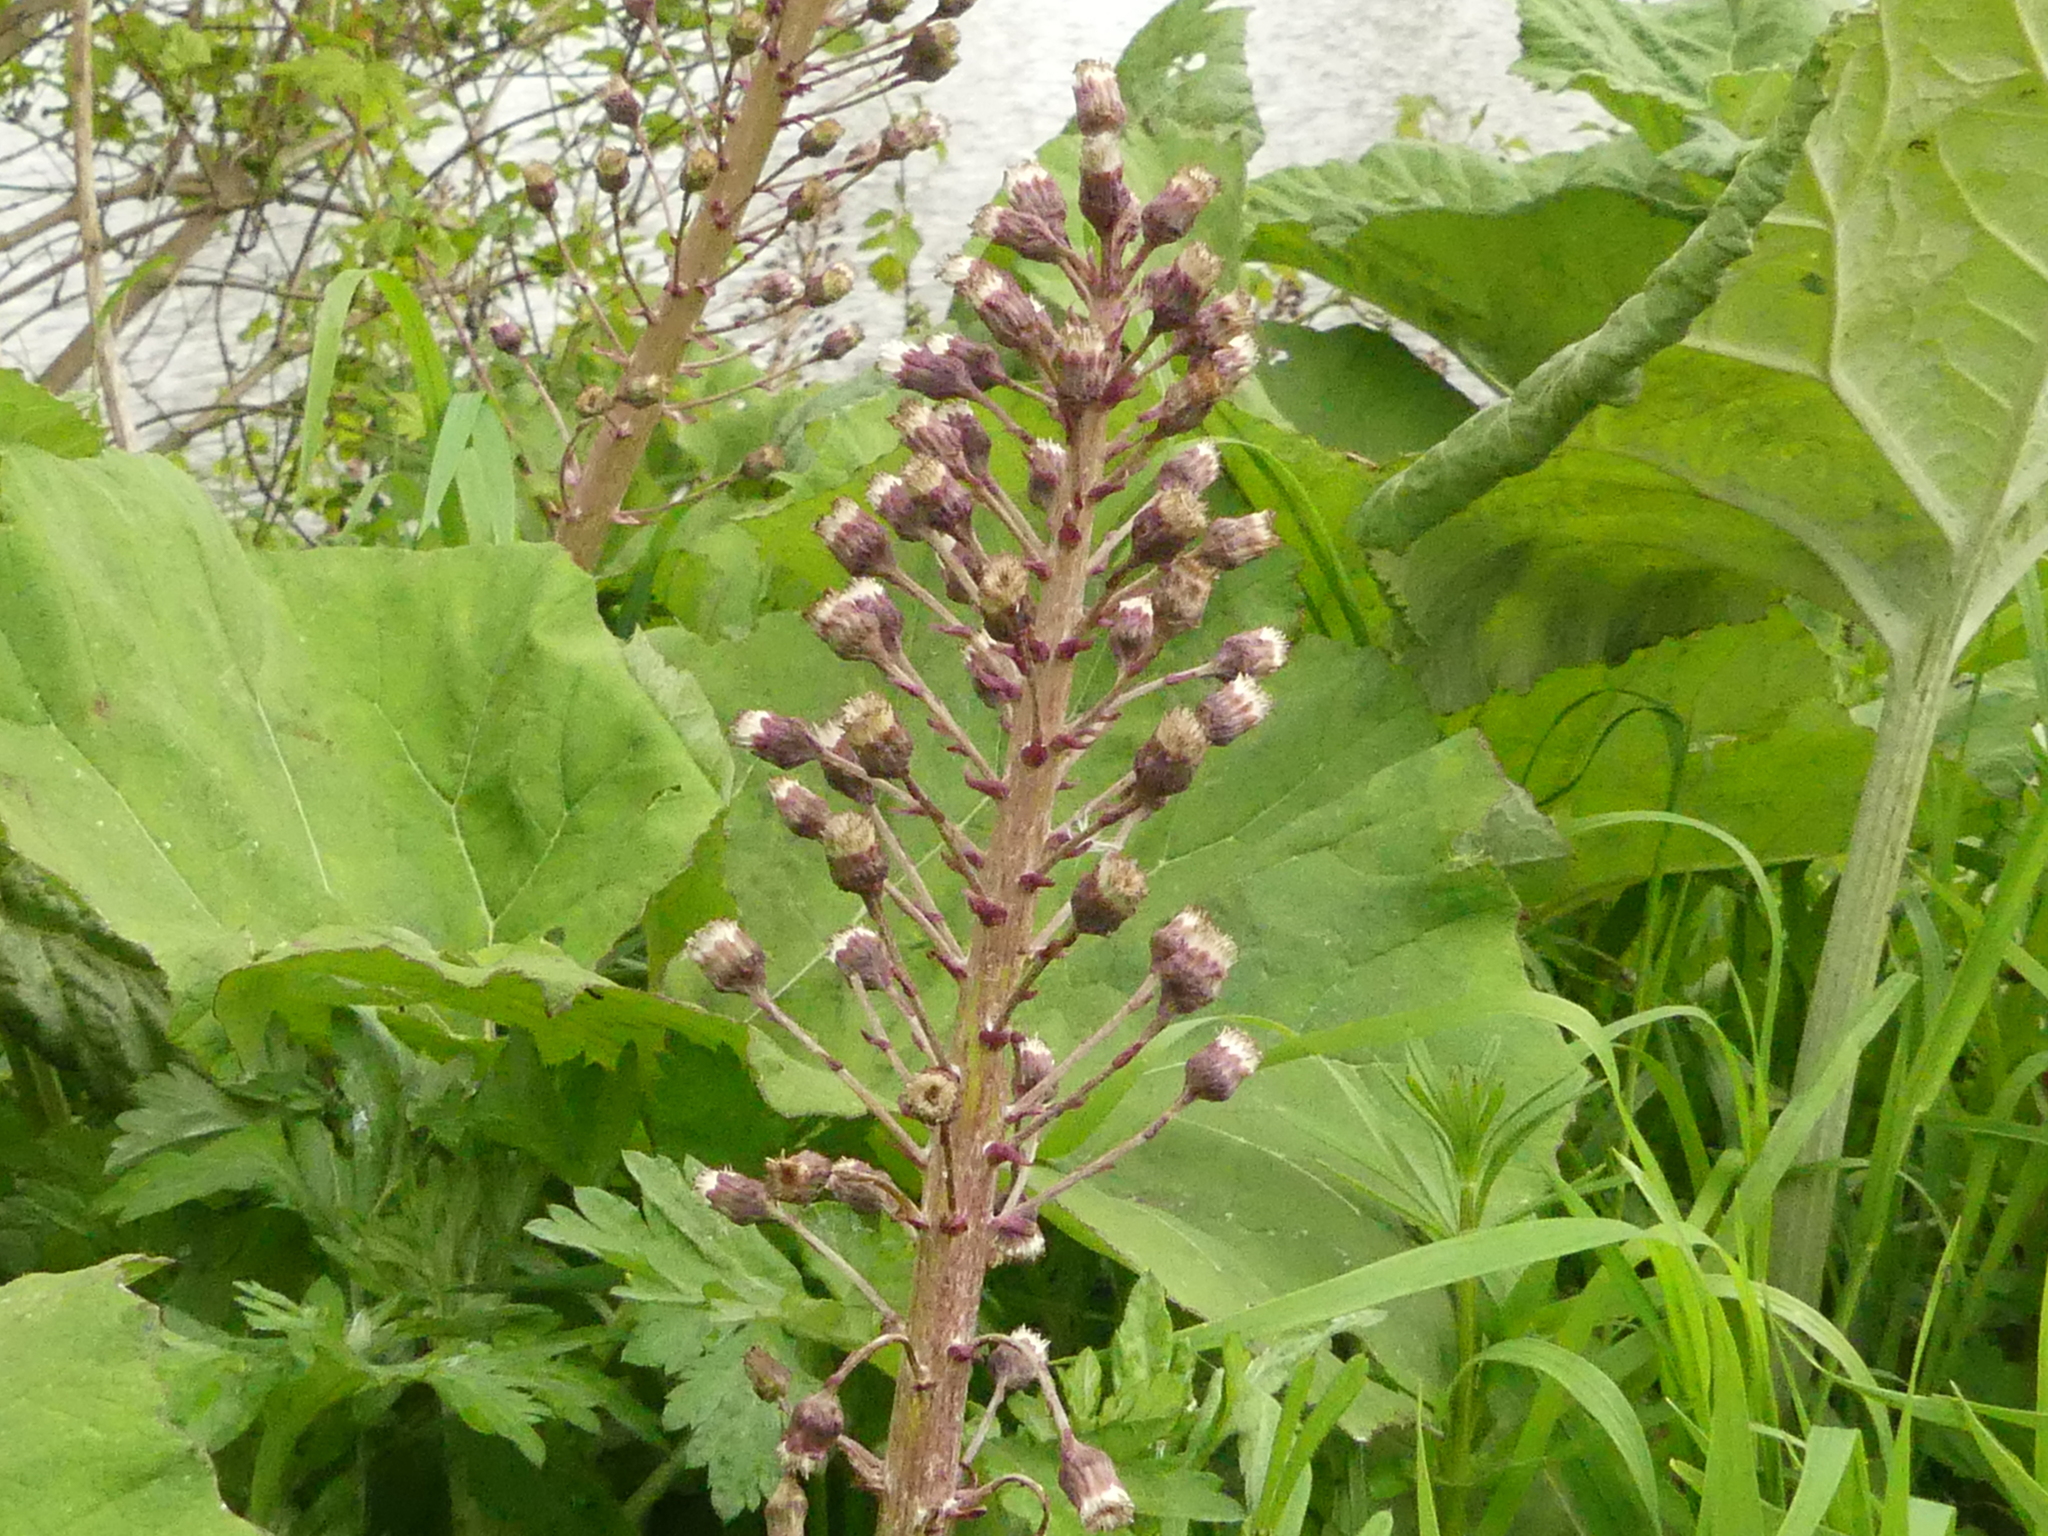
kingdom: Plantae
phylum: Tracheophyta
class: Magnoliopsida
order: Asterales
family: Asteraceae
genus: Petasites
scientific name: Petasites hybridus
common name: Butterbur
